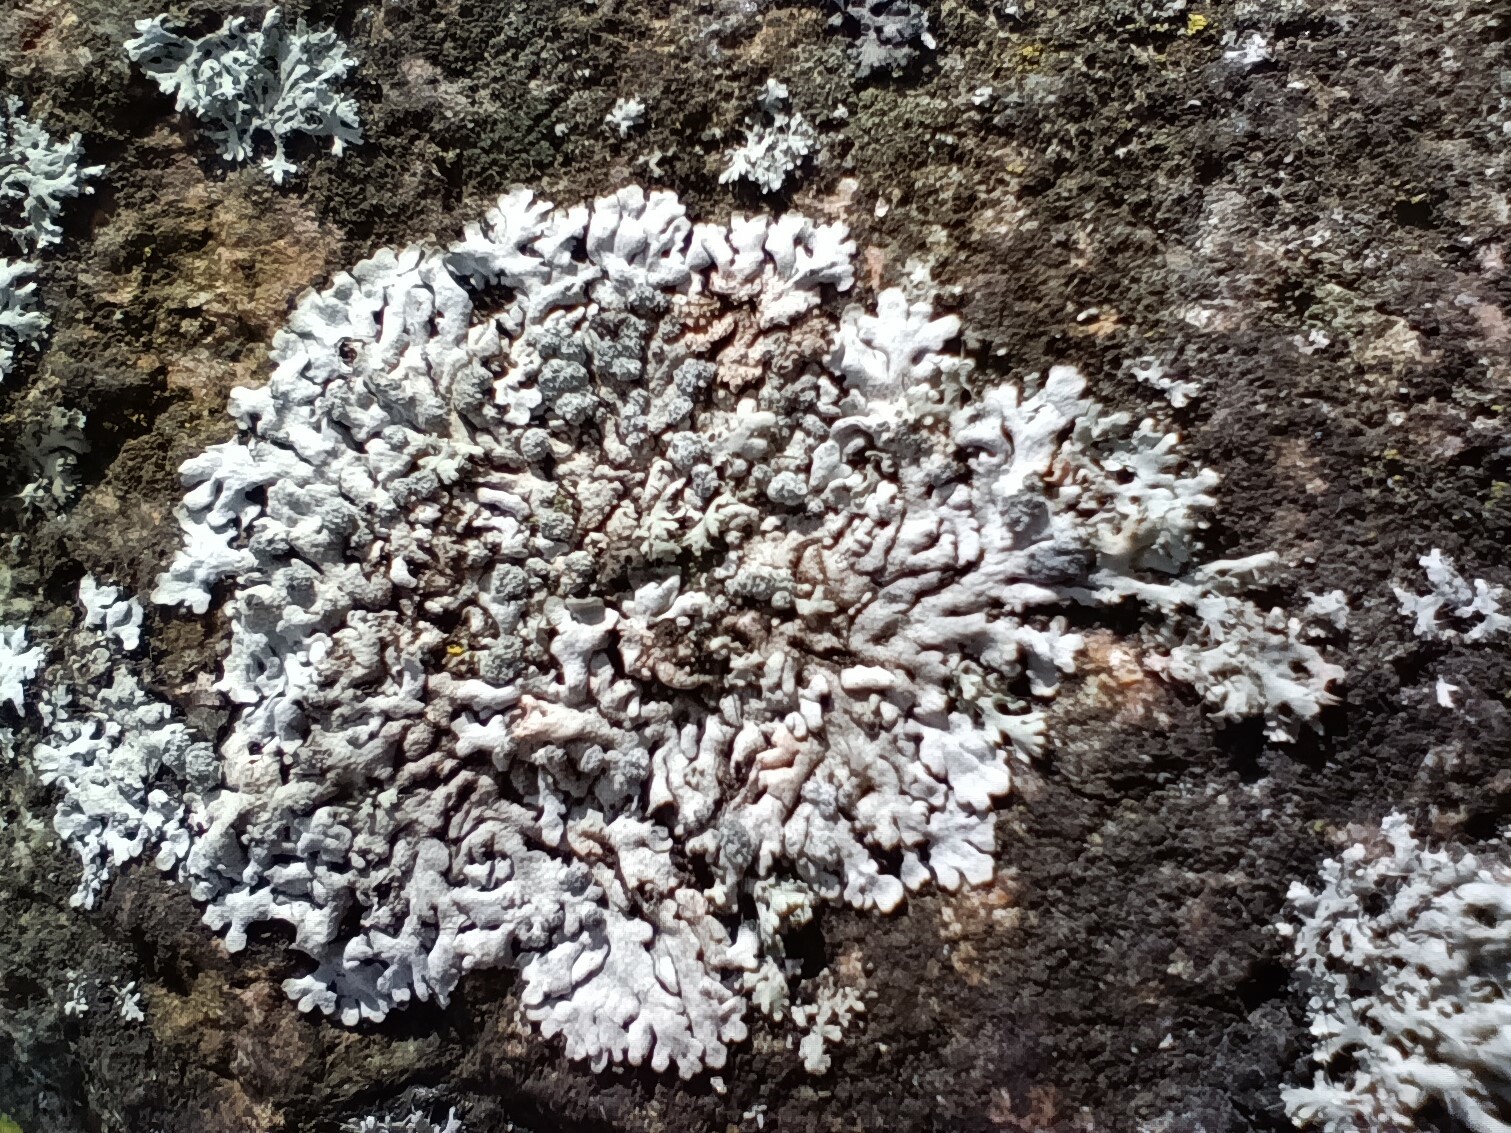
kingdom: Fungi
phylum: Ascomycota
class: Lecanoromycetes
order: Caliciales
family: Physciaceae
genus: Physcia
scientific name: Physcia caesia
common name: Blue-gray rosette lichen
